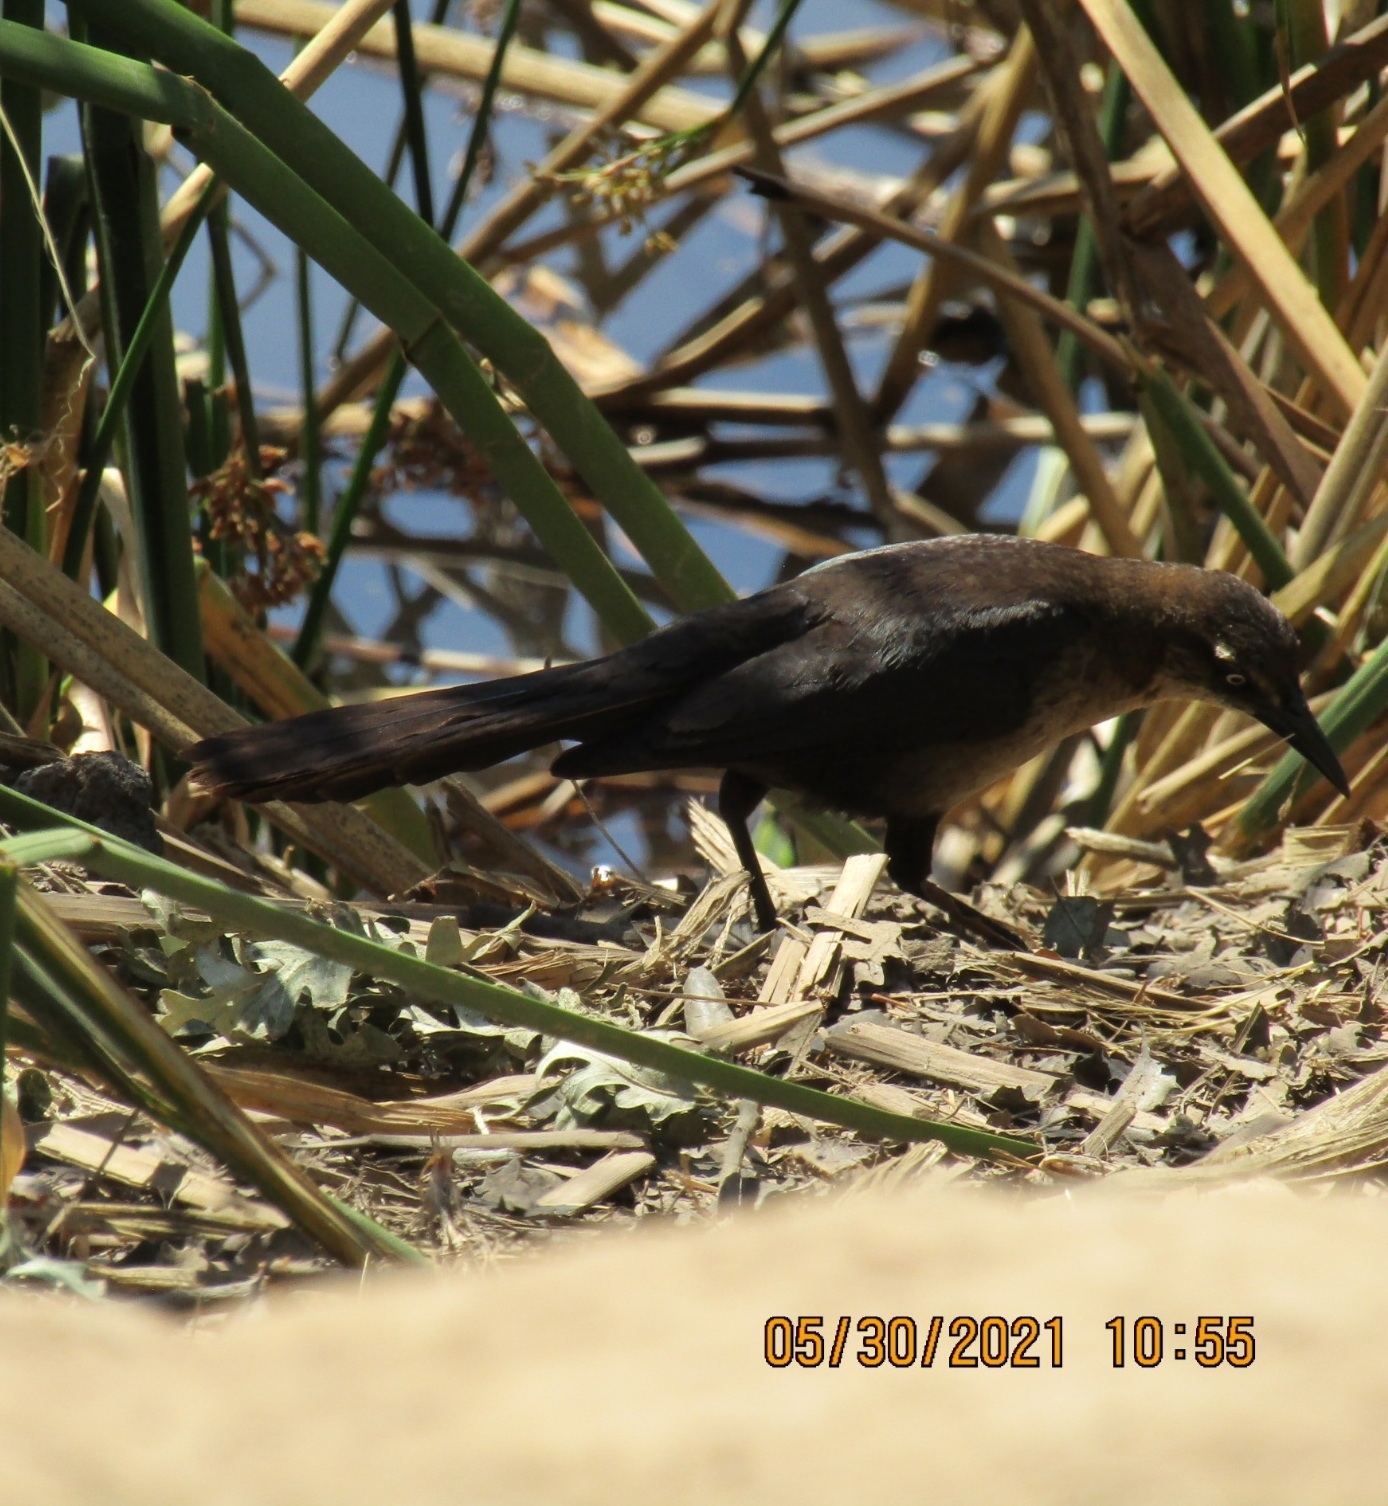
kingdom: Animalia
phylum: Chordata
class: Aves
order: Passeriformes
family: Icteridae
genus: Quiscalus
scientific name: Quiscalus mexicanus
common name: Great-tailed grackle
